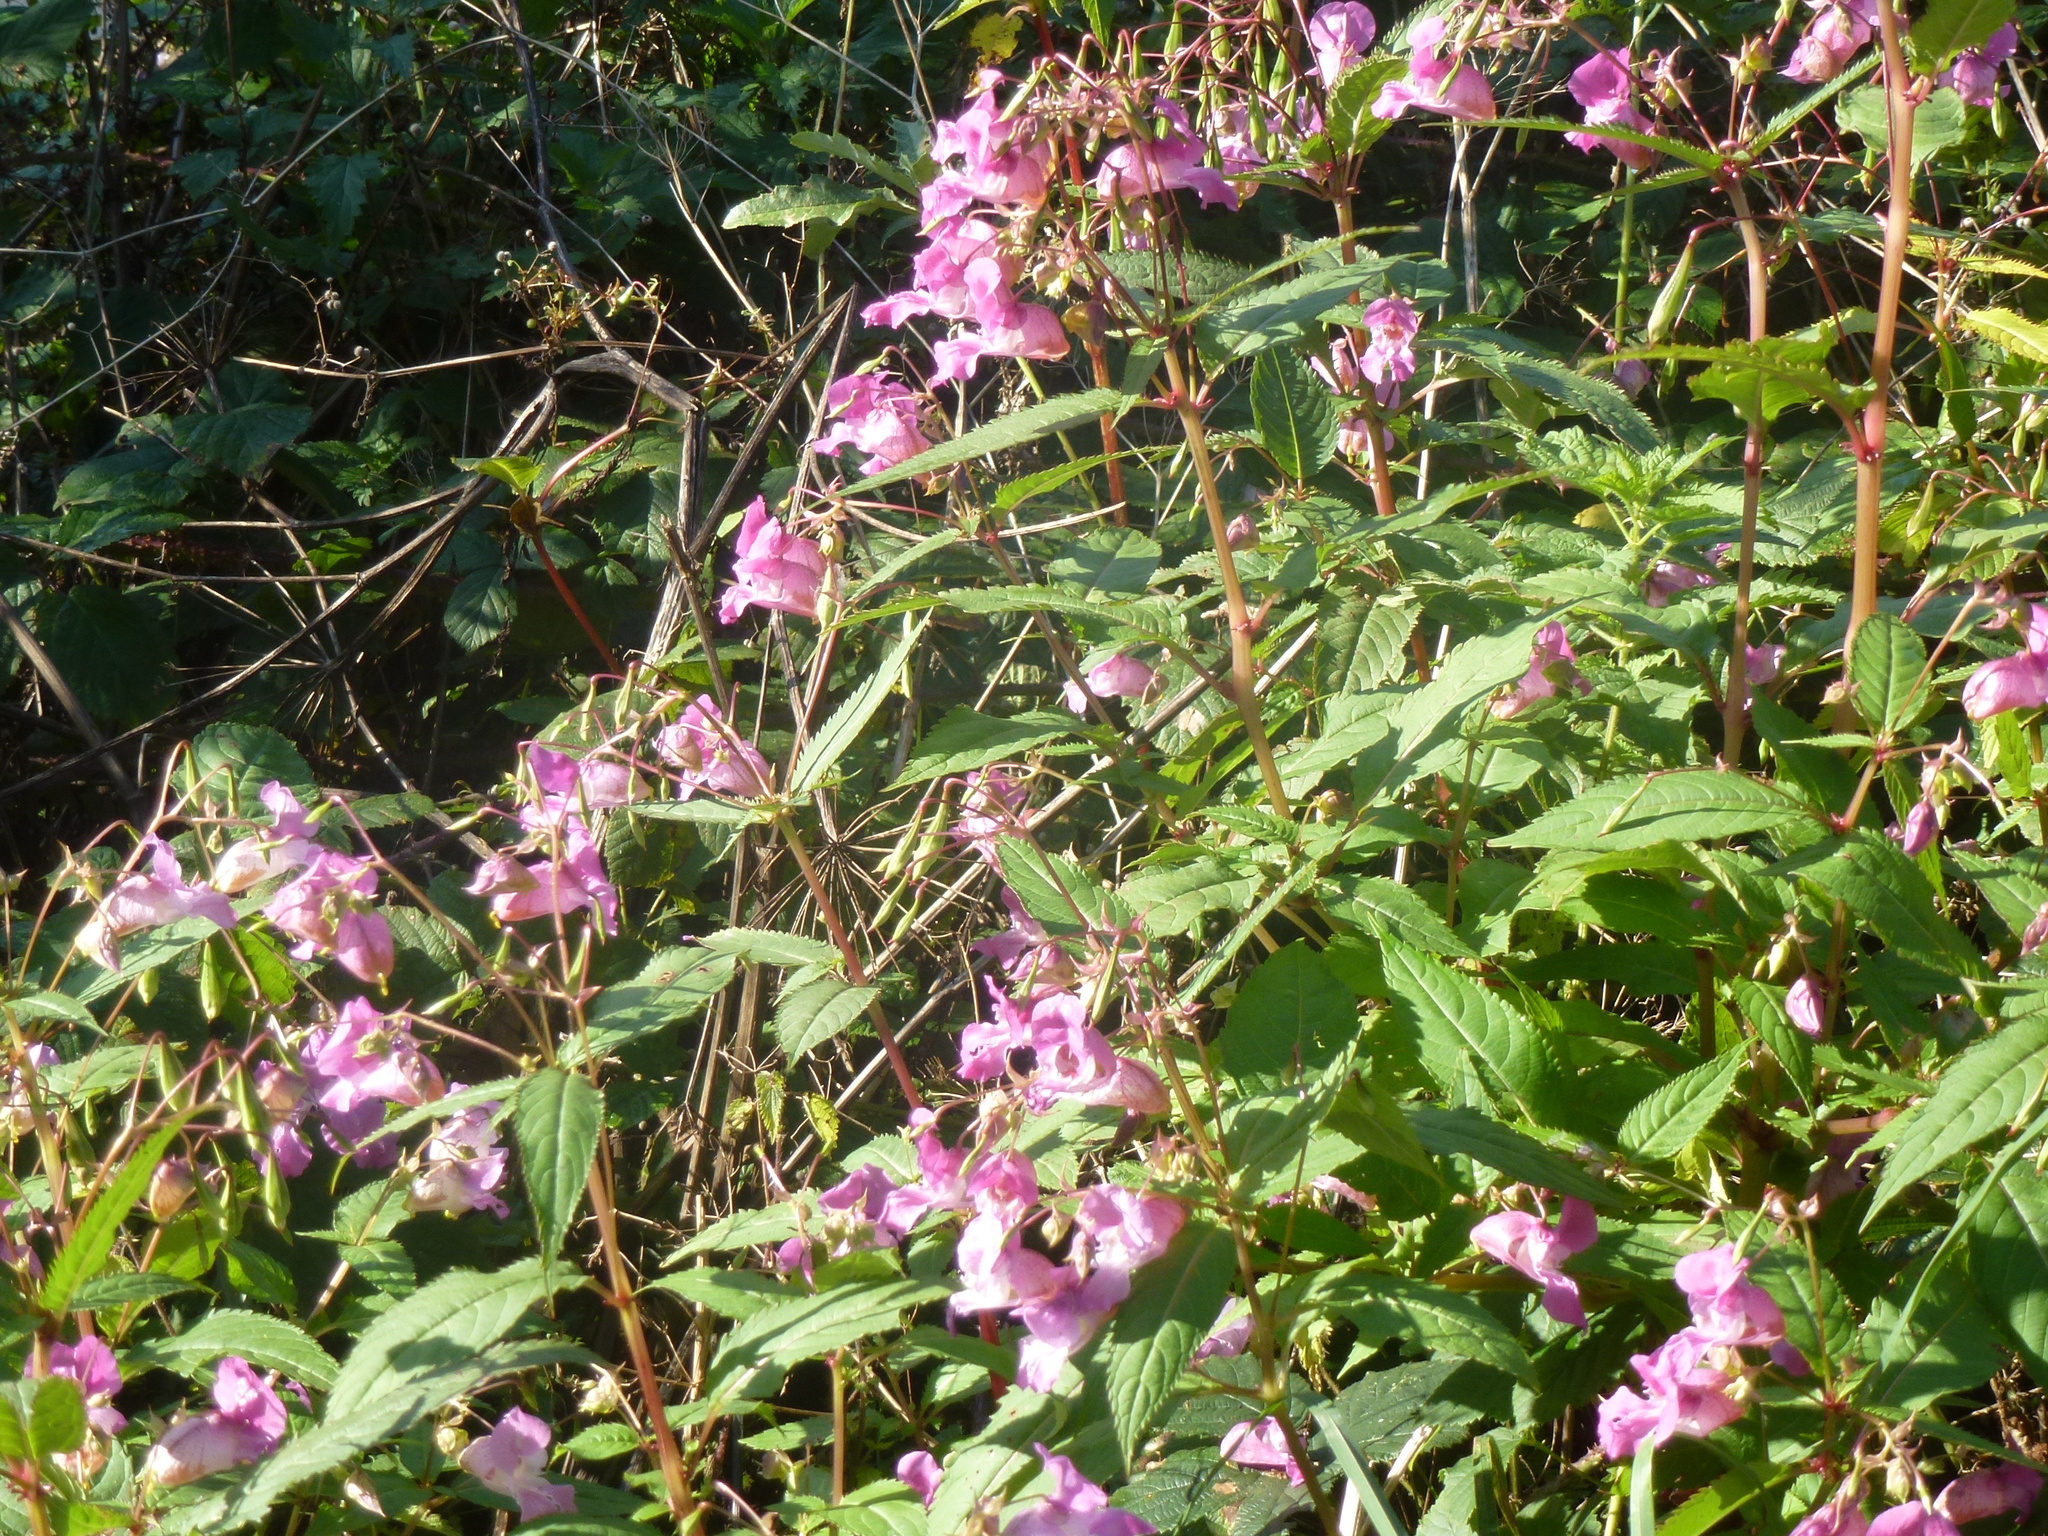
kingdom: Plantae
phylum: Tracheophyta
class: Magnoliopsida
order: Ericales
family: Balsaminaceae
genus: Impatiens
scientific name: Impatiens glandulifera
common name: Himalayan balsam
